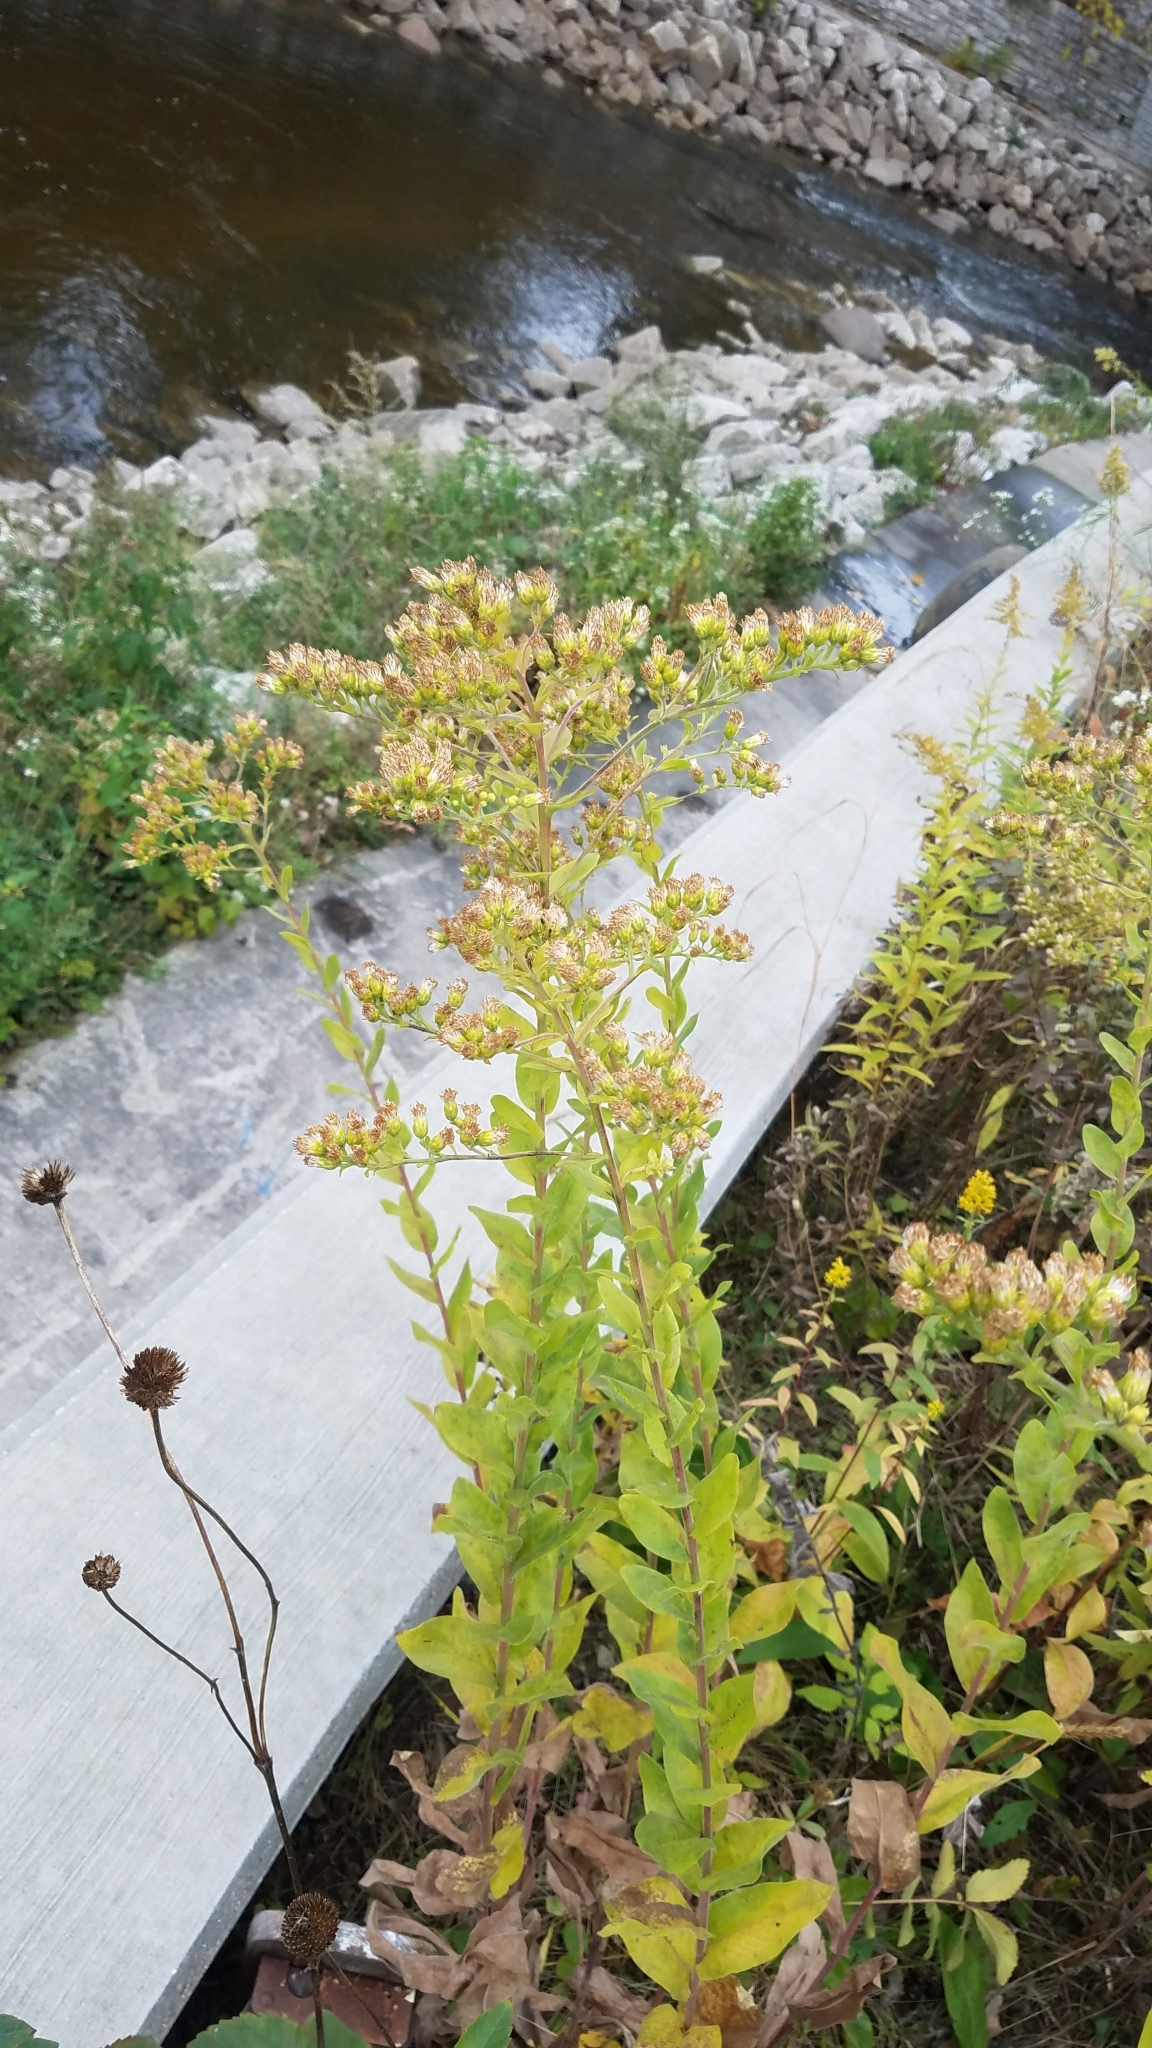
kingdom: Plantae
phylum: Tracheophyta
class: Magnoliopsida
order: Asterales
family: Asteraceae
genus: Solidago
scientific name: Solidago rigida
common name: Rigid goldenrod
